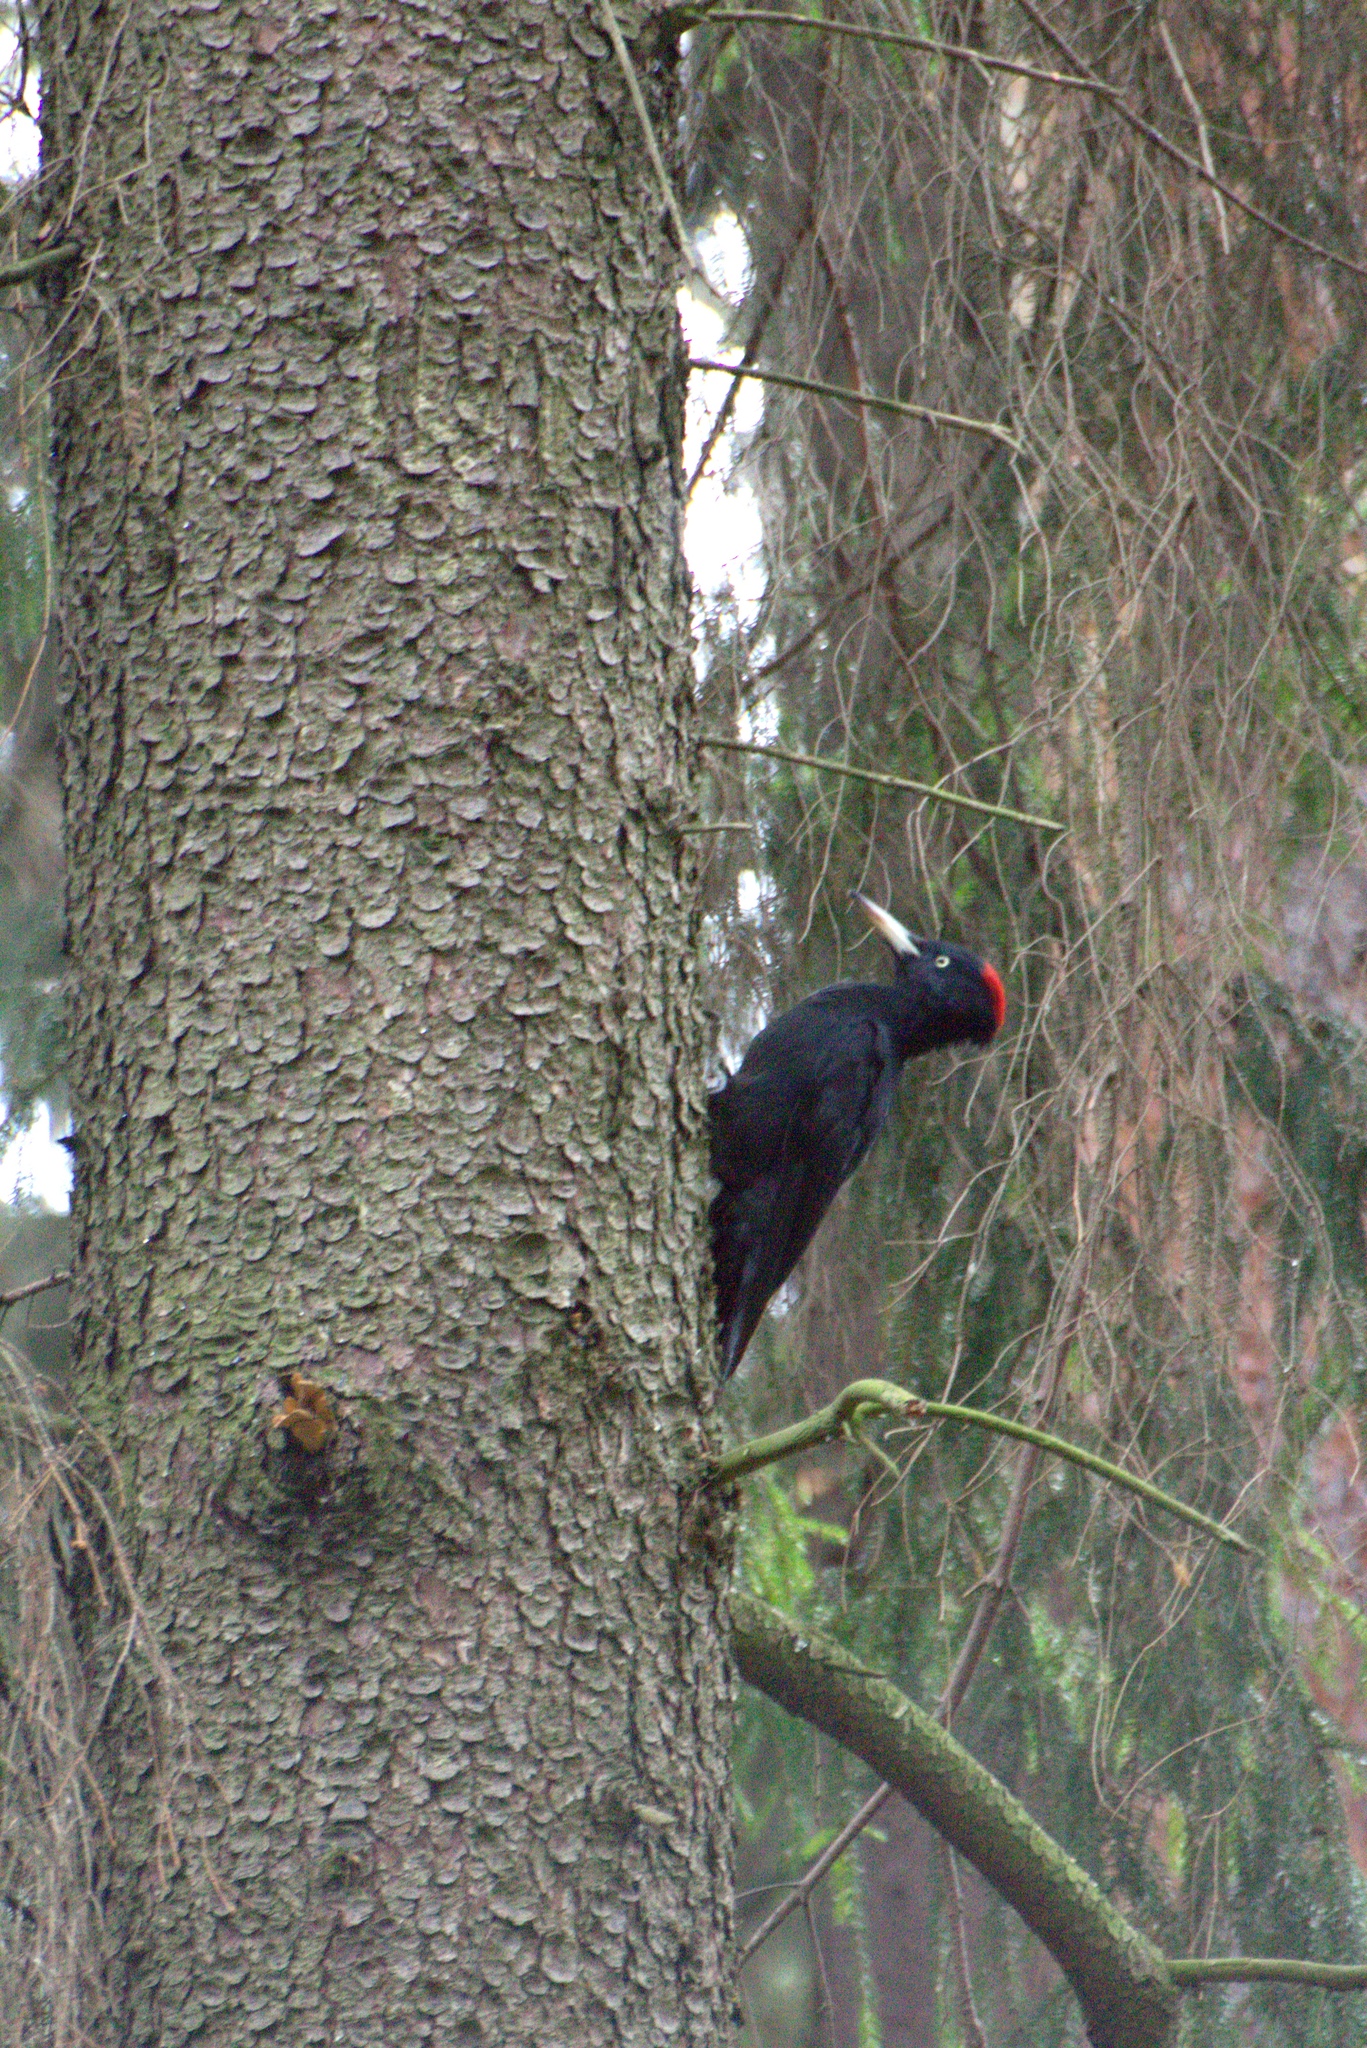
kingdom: Animalia
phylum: Chordata
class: Aves
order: Piciformes
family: Picidae
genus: Dryocopus
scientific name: Dryocopus martius
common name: Black woodpecker
